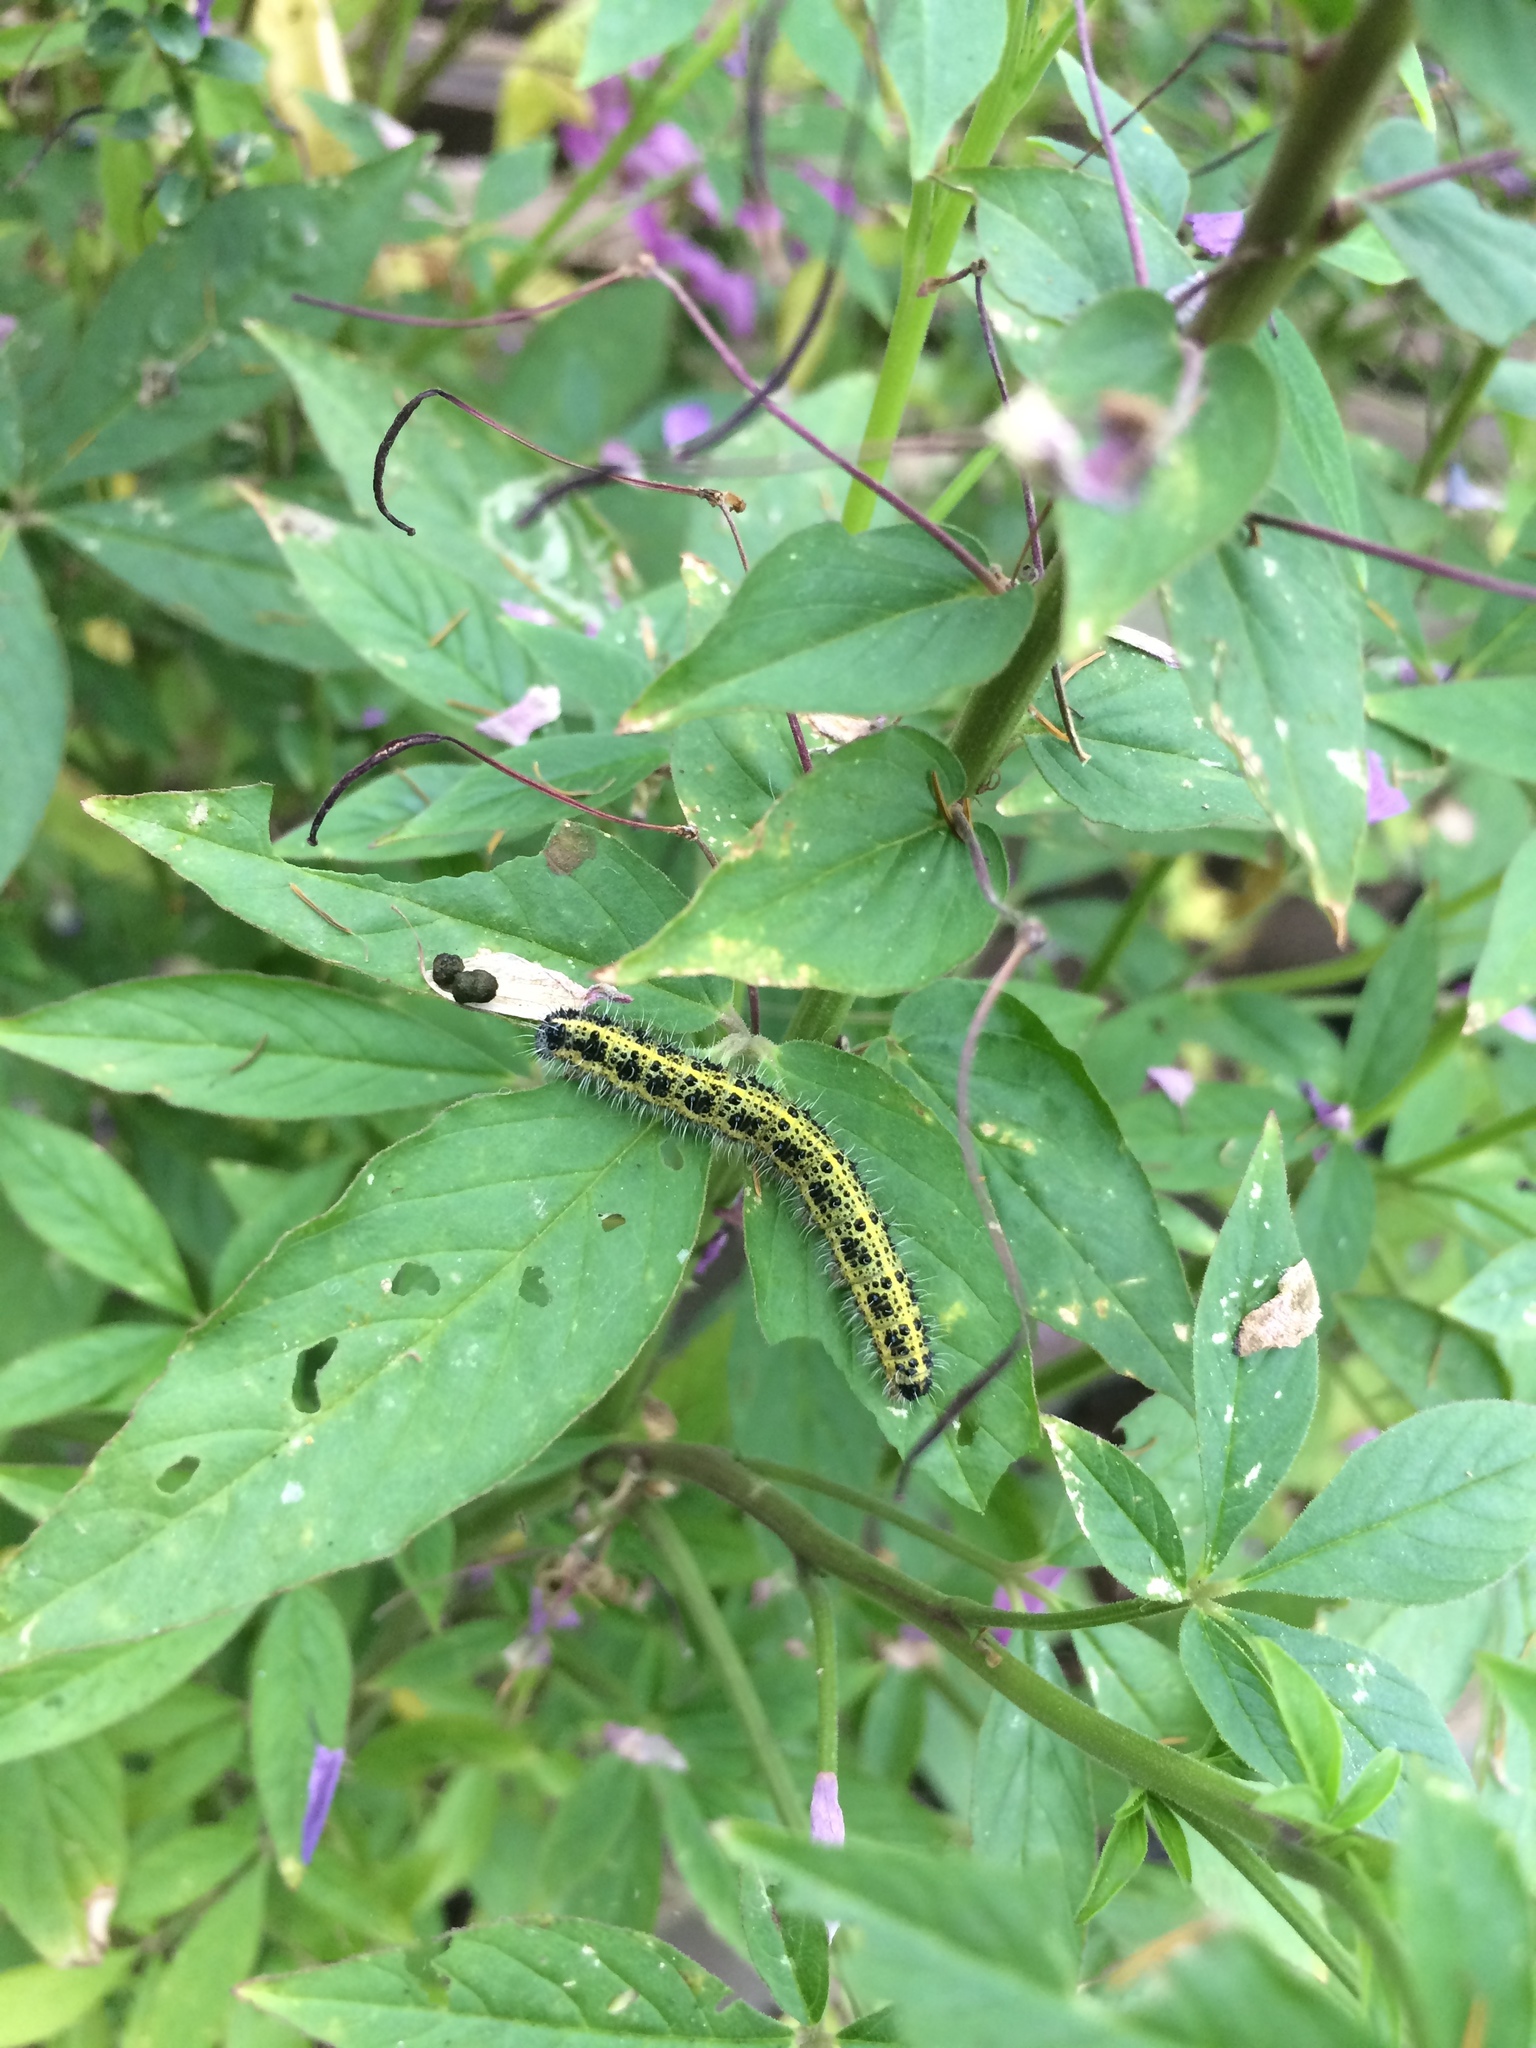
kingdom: Animalia
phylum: Arthropoda
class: Insecta
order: Lepidoptera
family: Pieridae
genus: Pieris
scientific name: Pieris brassicae
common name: Large white
